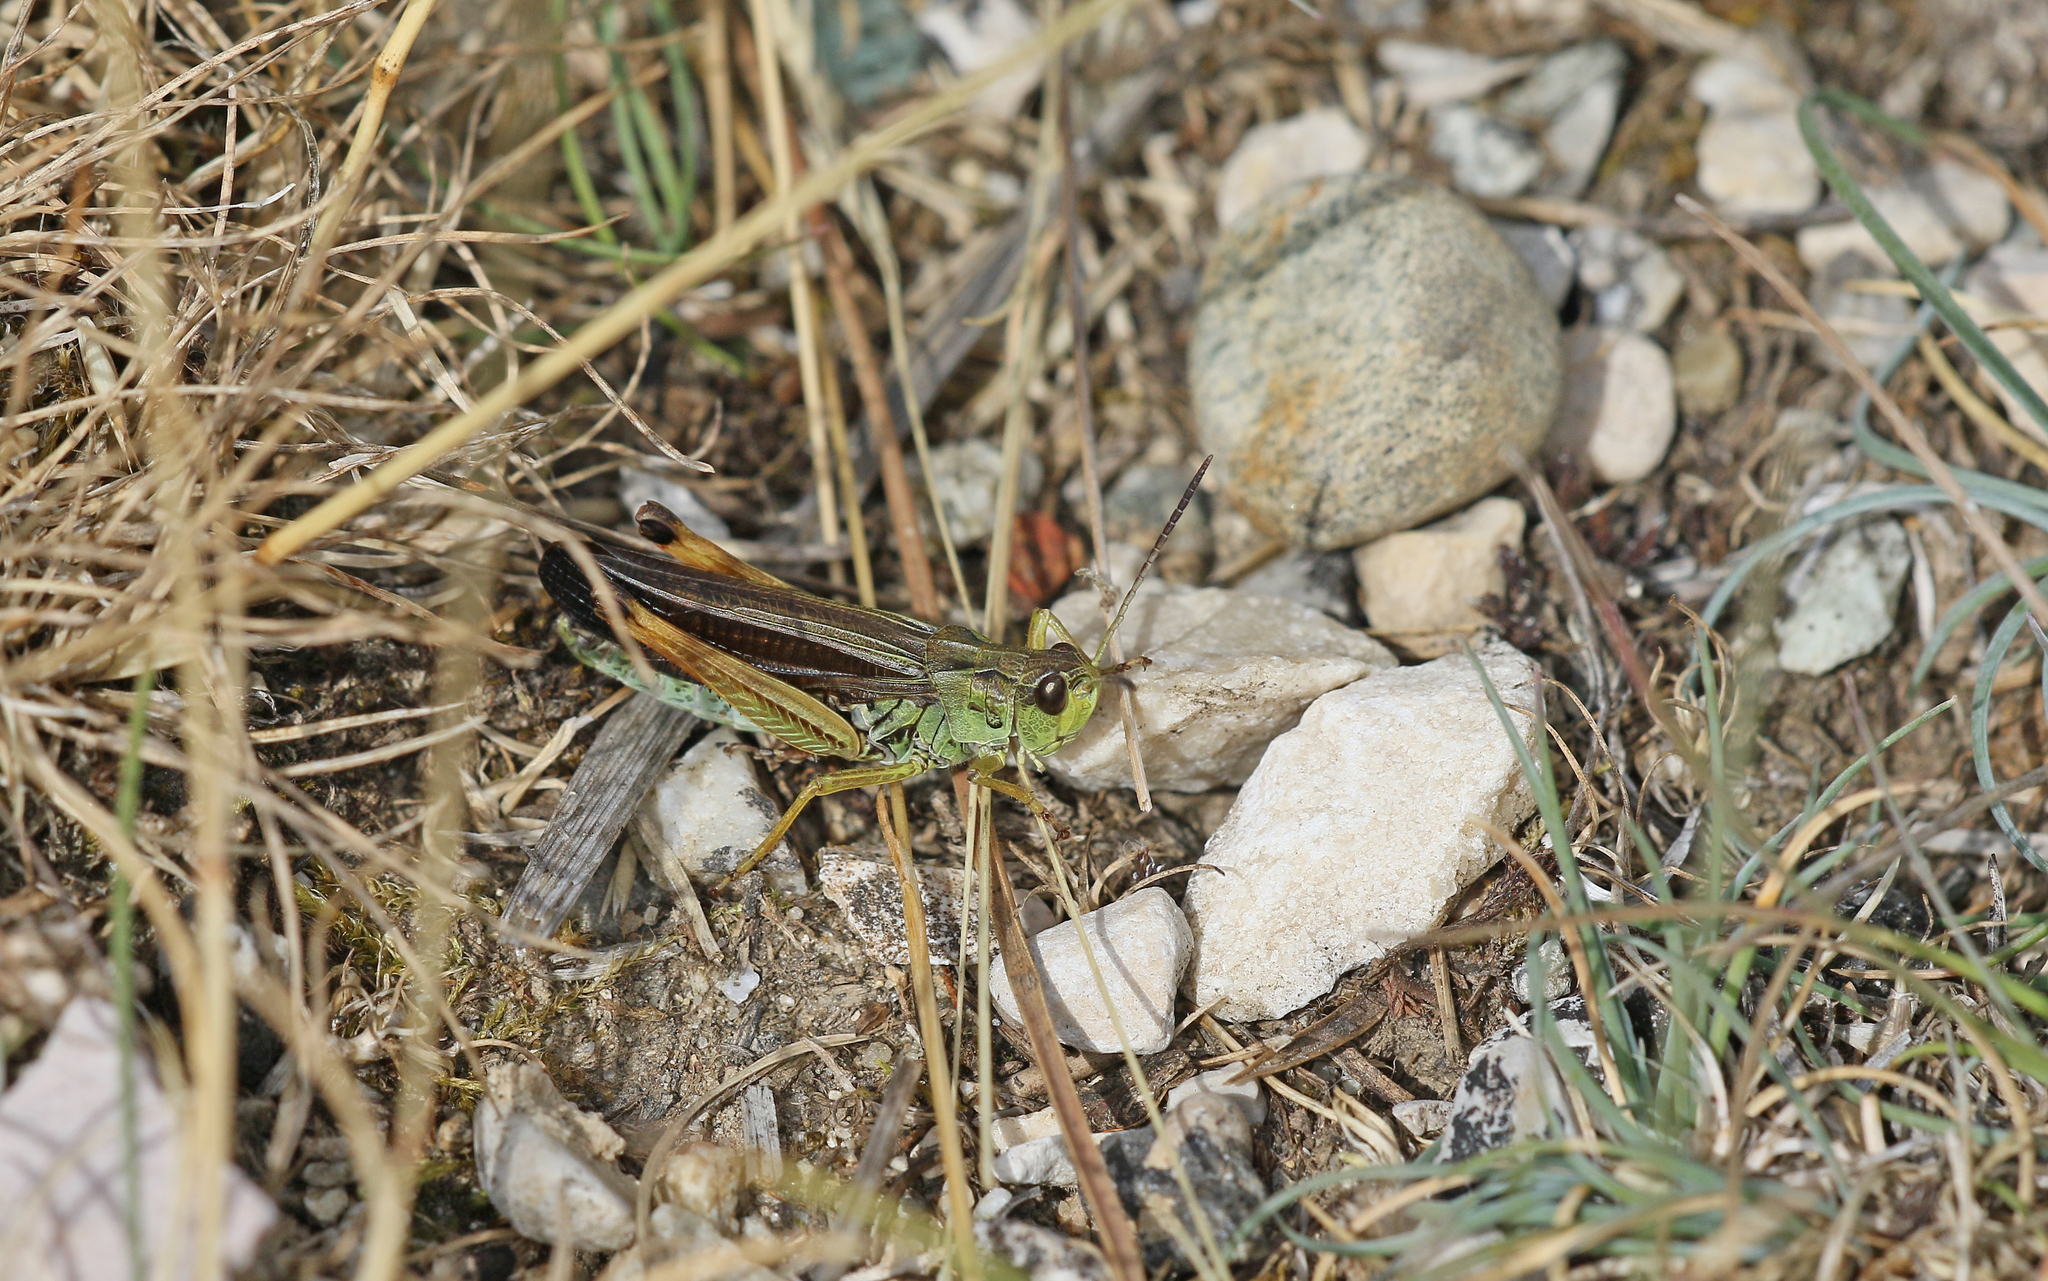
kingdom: Animalia
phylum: Arthropoda
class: Insecta
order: Orthoptera
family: Acrididae
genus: Stauroderus
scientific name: Stauroderus scalaris
